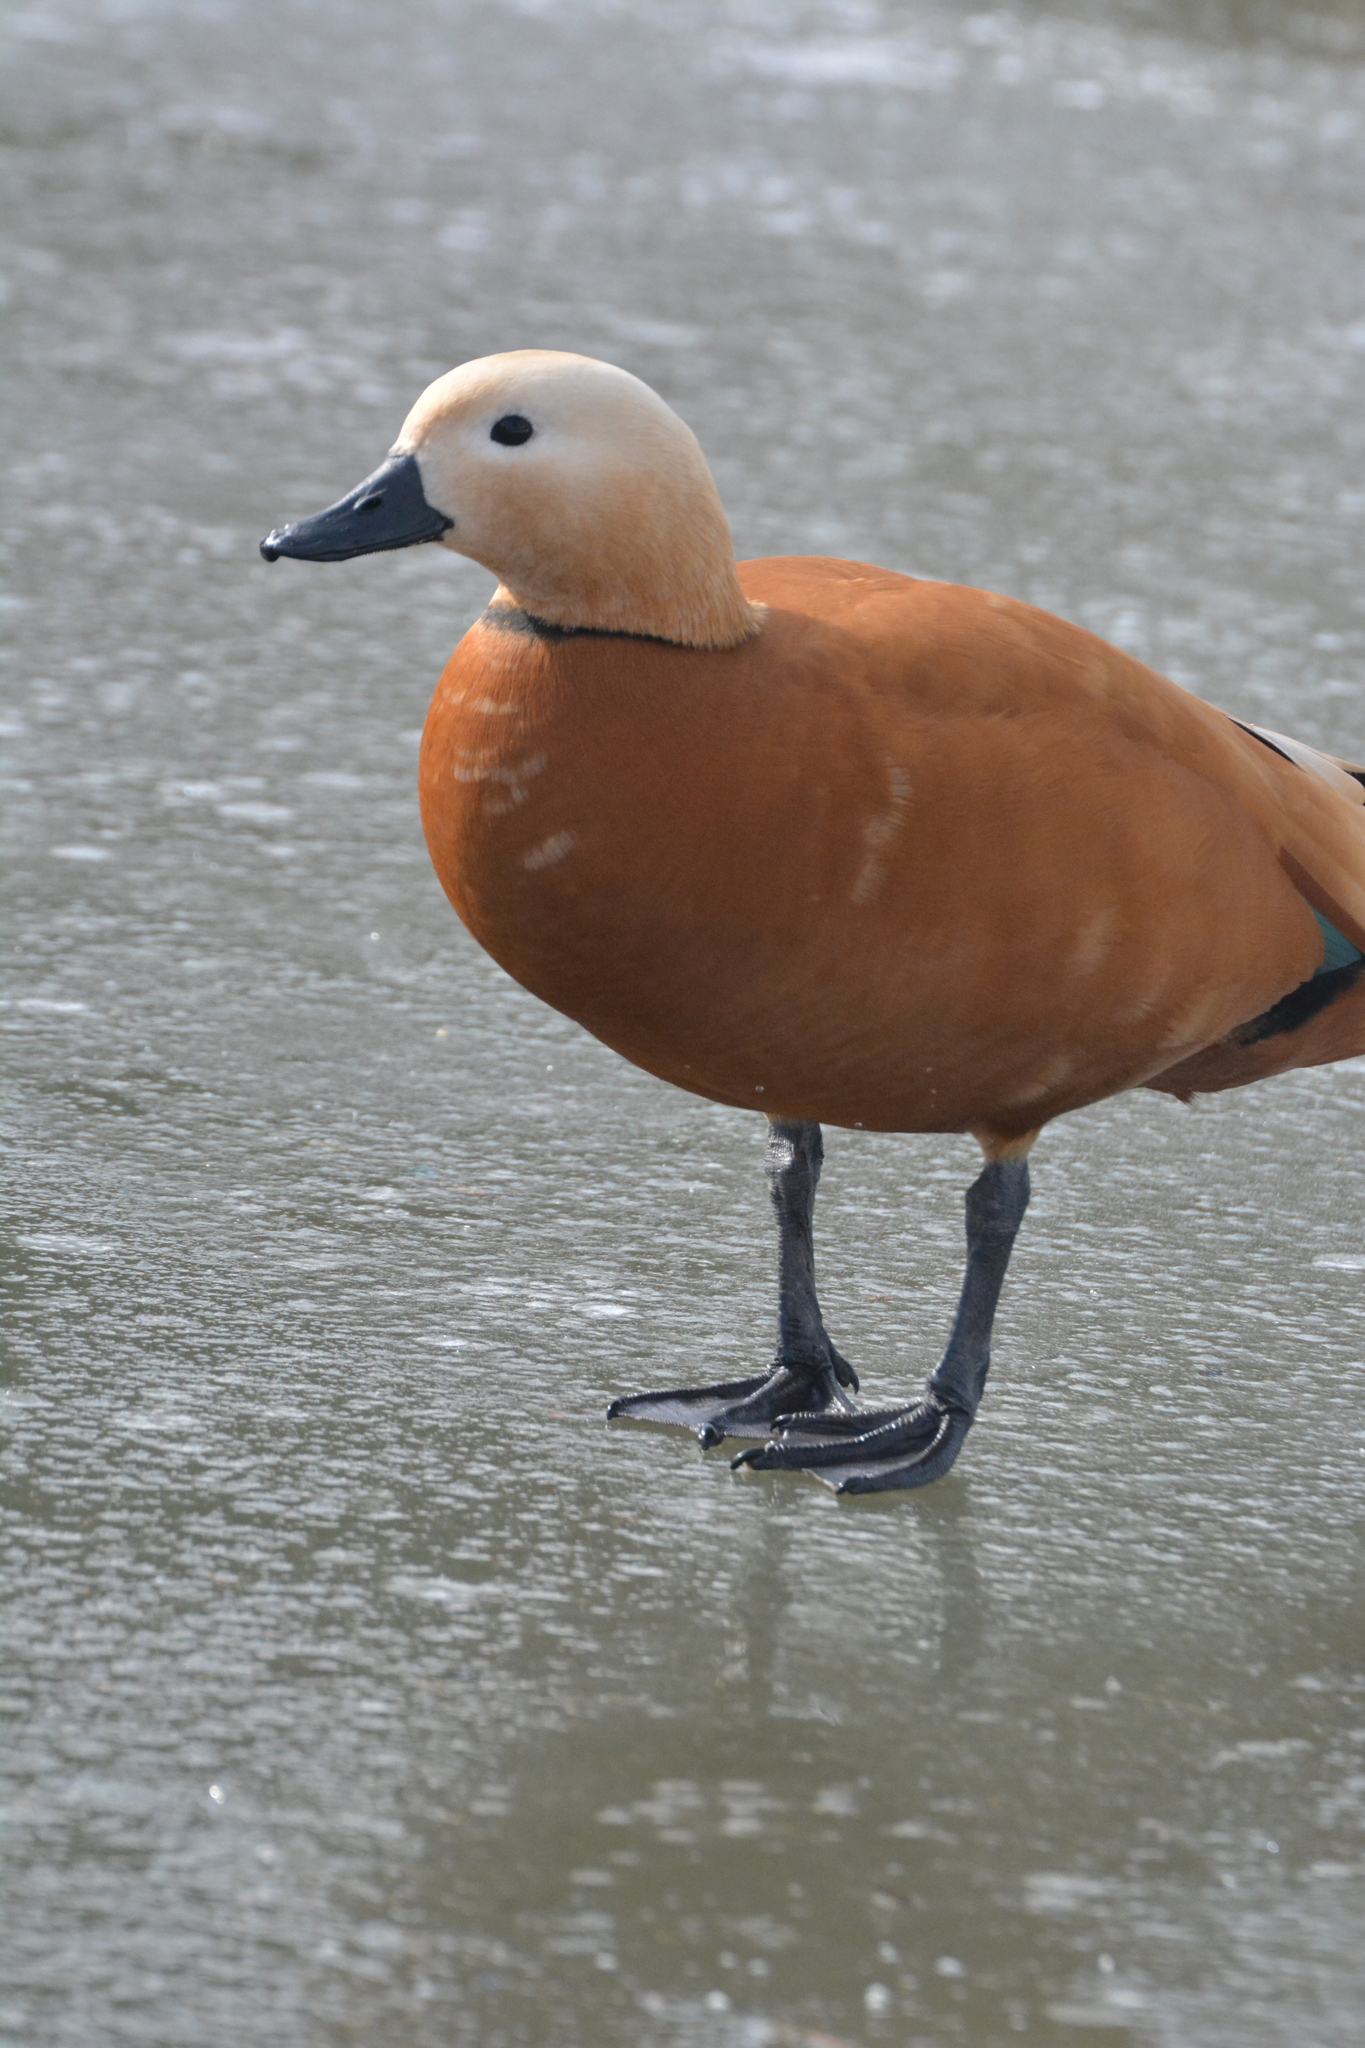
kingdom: Animalia
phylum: Chordata
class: Aves
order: Anseriformes
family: Anatidae
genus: Tadorna
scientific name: Tadorna ferruginea
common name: Ruddy shelduck
